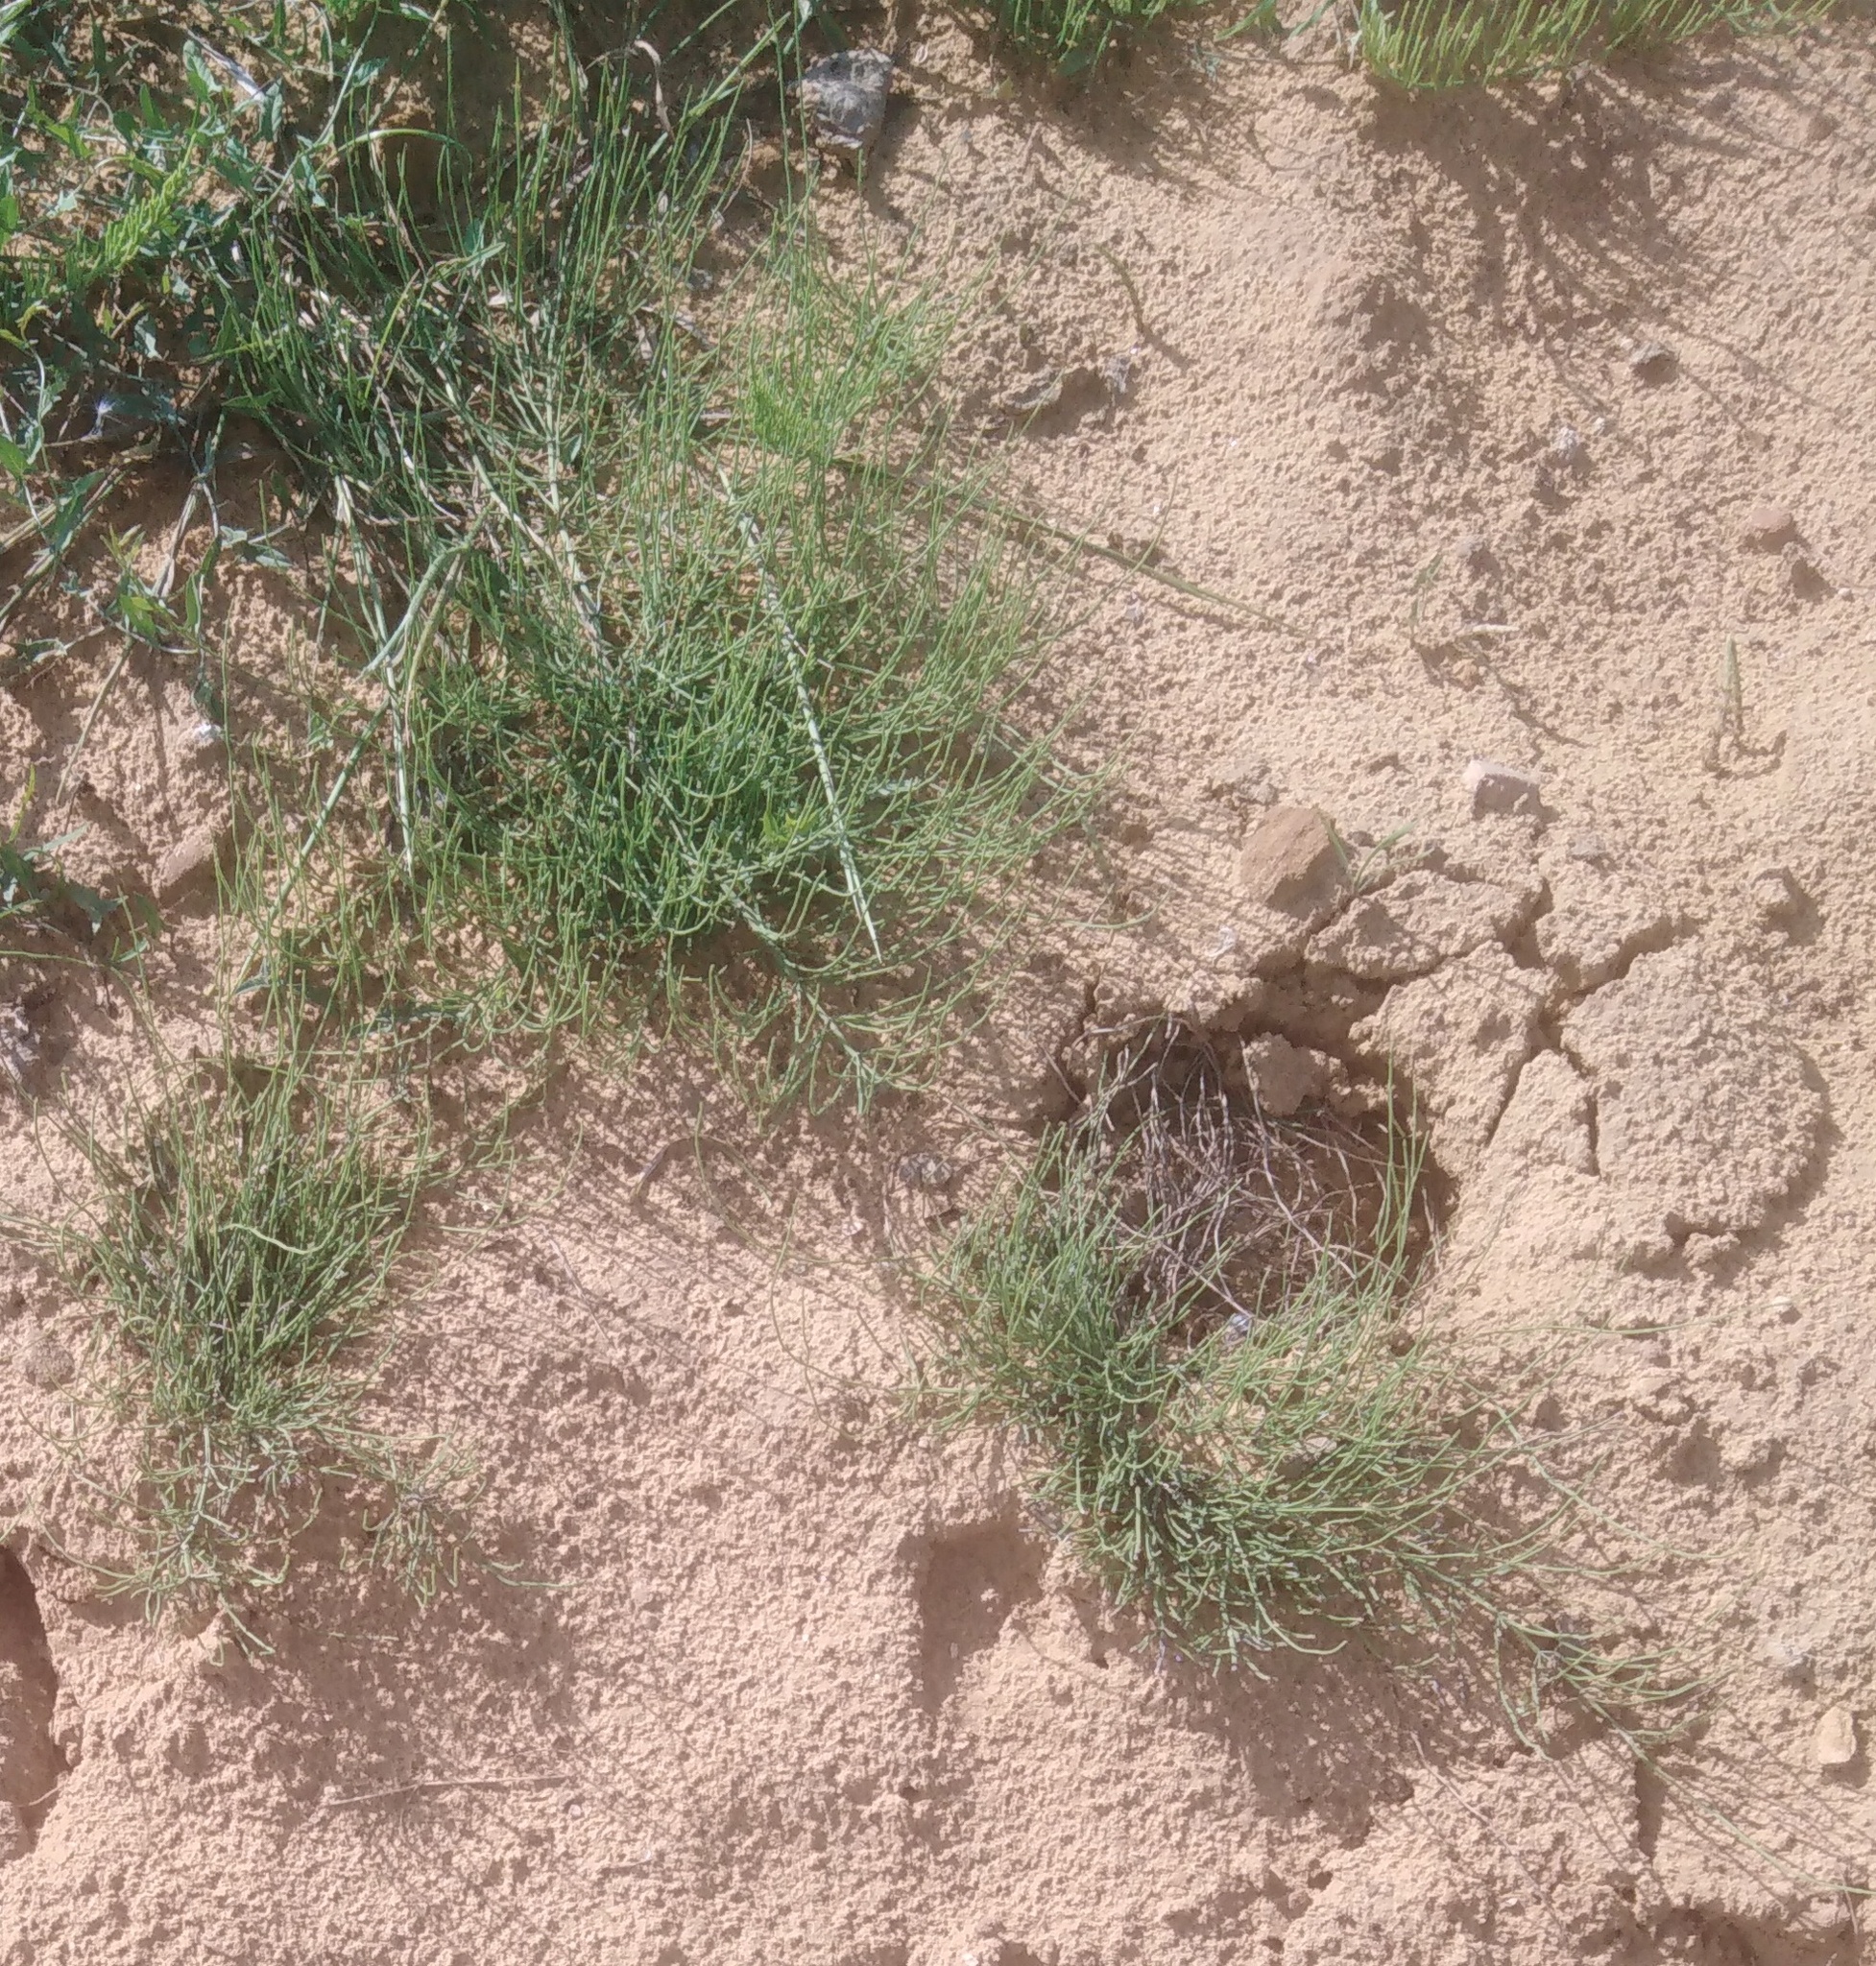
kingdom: Plantae
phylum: Tracheophyta
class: Polypodiopsida
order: Equisetales
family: Equisetaceae
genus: Equisetum
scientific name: Equisetum arvense
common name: Field horsetail
